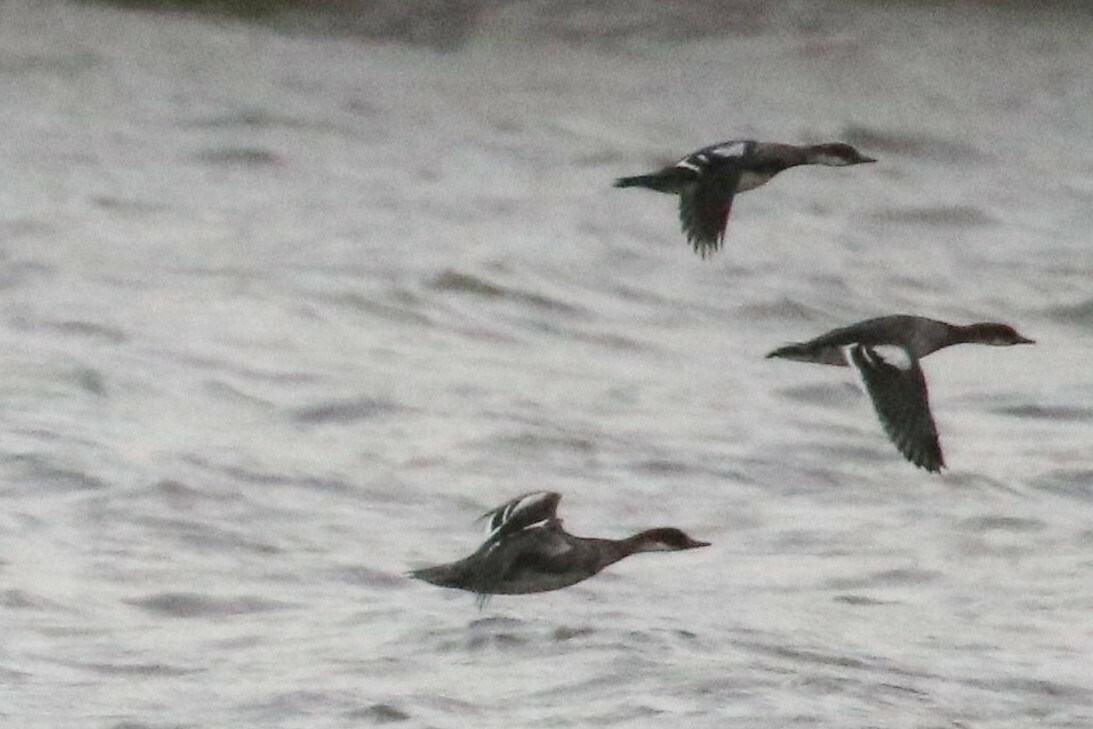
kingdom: Animalia
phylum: Chordata
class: Aves
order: Anseriformes
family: Anatidae
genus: Mergellus
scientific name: Mergellus albellus
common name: Smew
